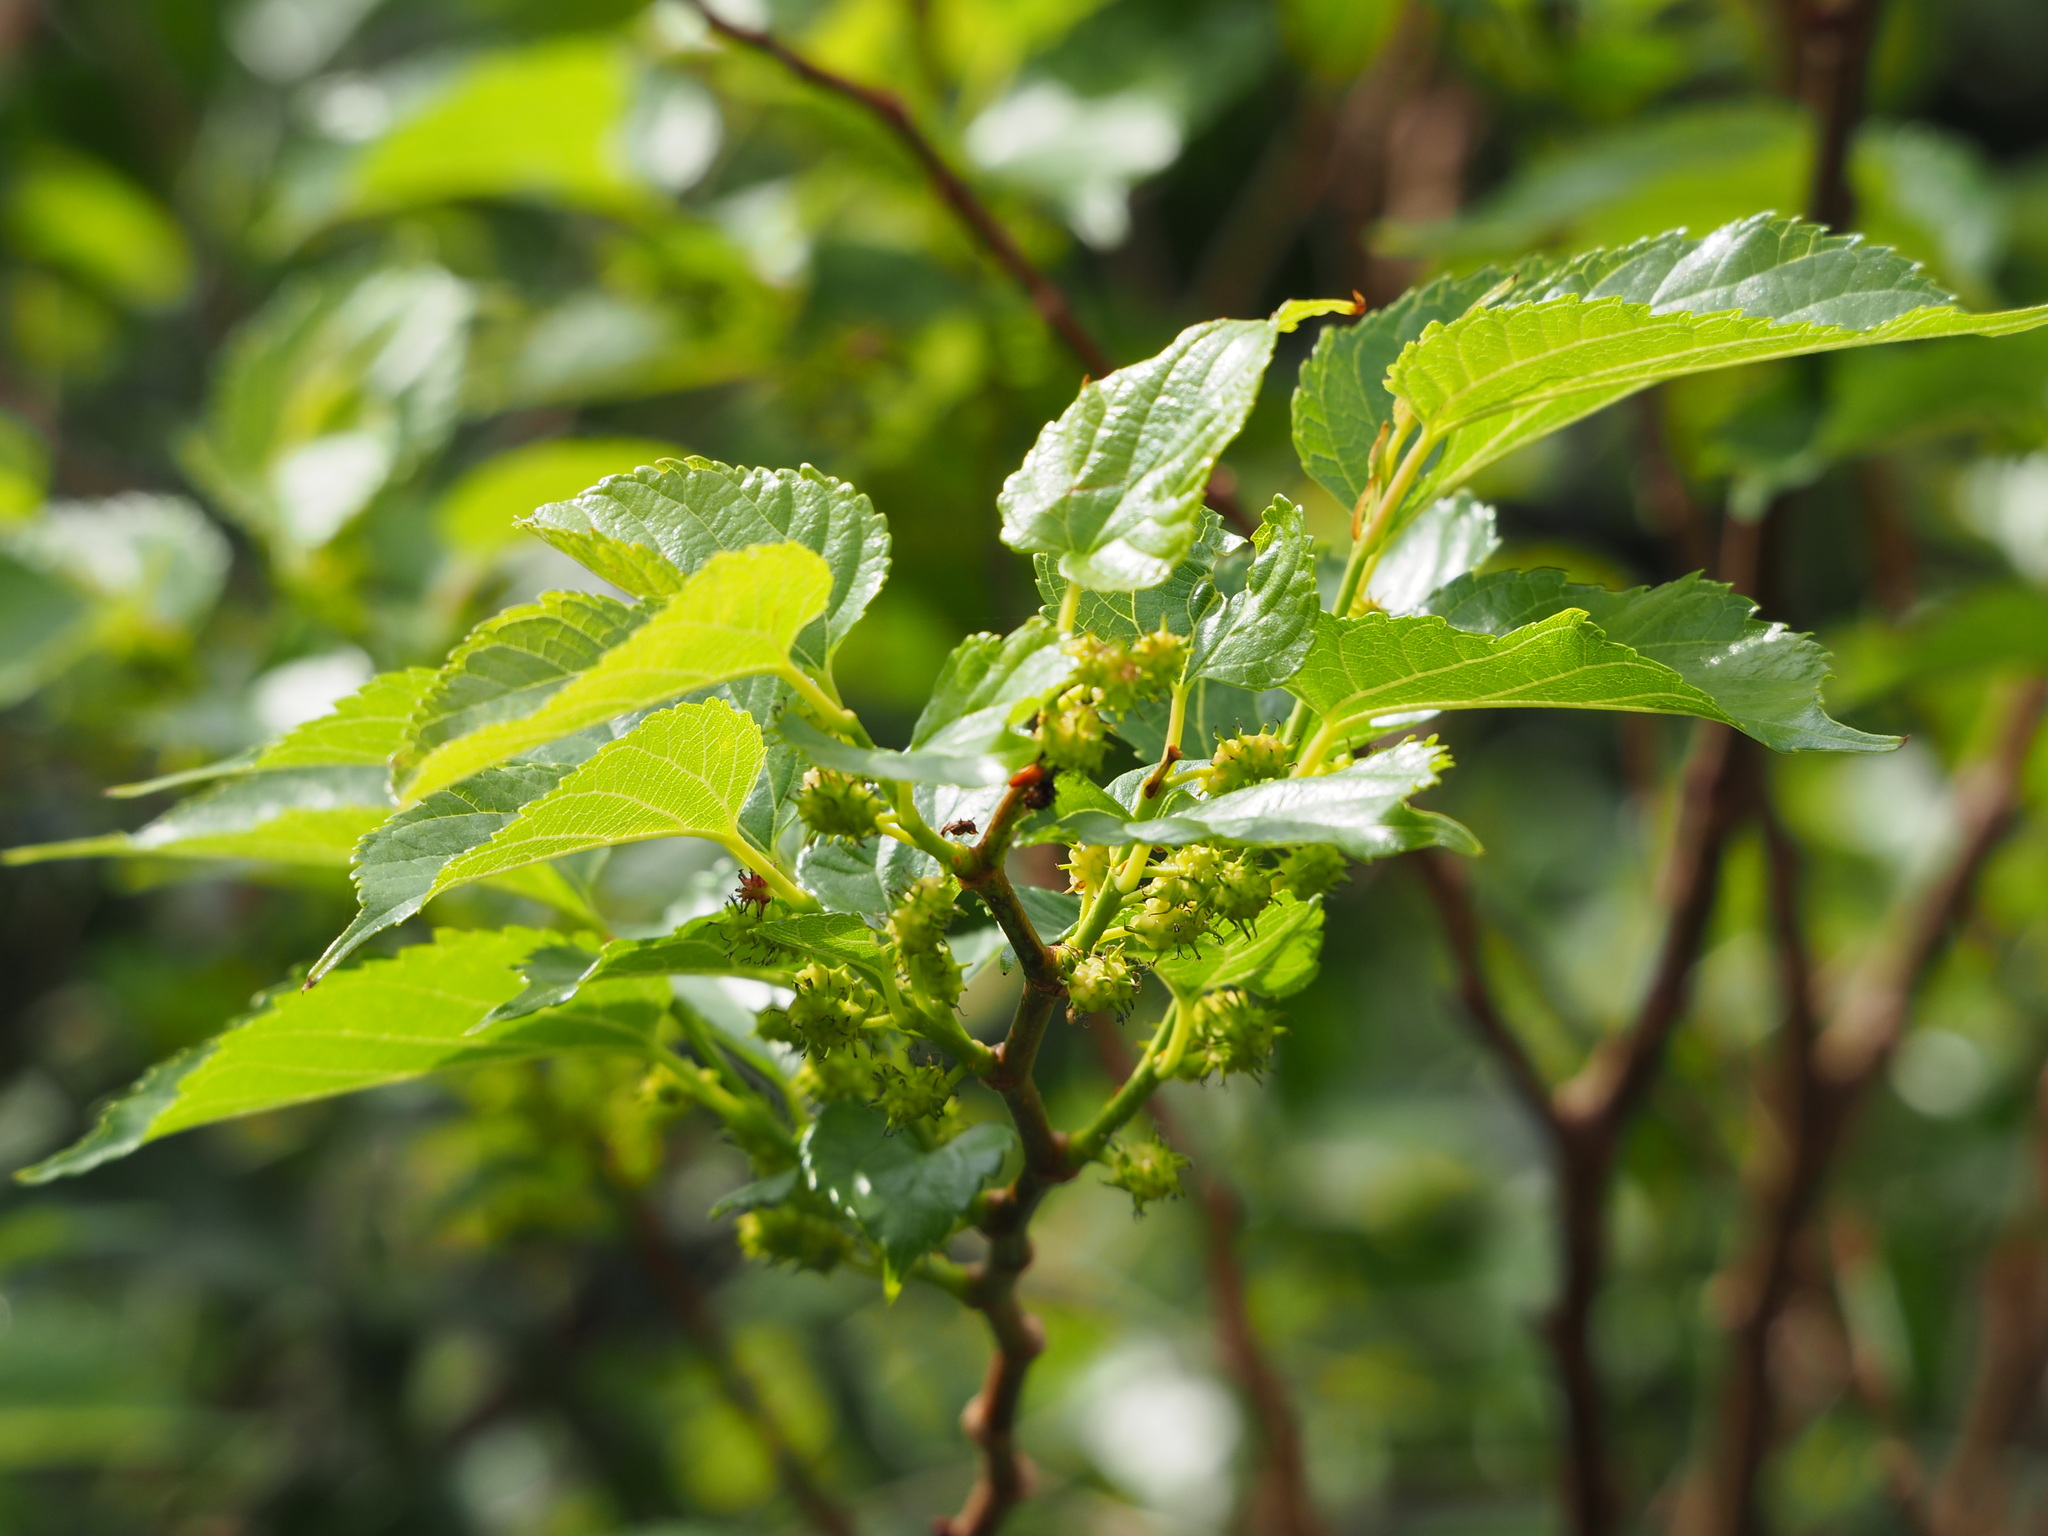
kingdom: Plantae
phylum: Tracheophyta
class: Magnoliopsida
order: Rosales
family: Moraceae
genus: Morus
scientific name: Morus indica
